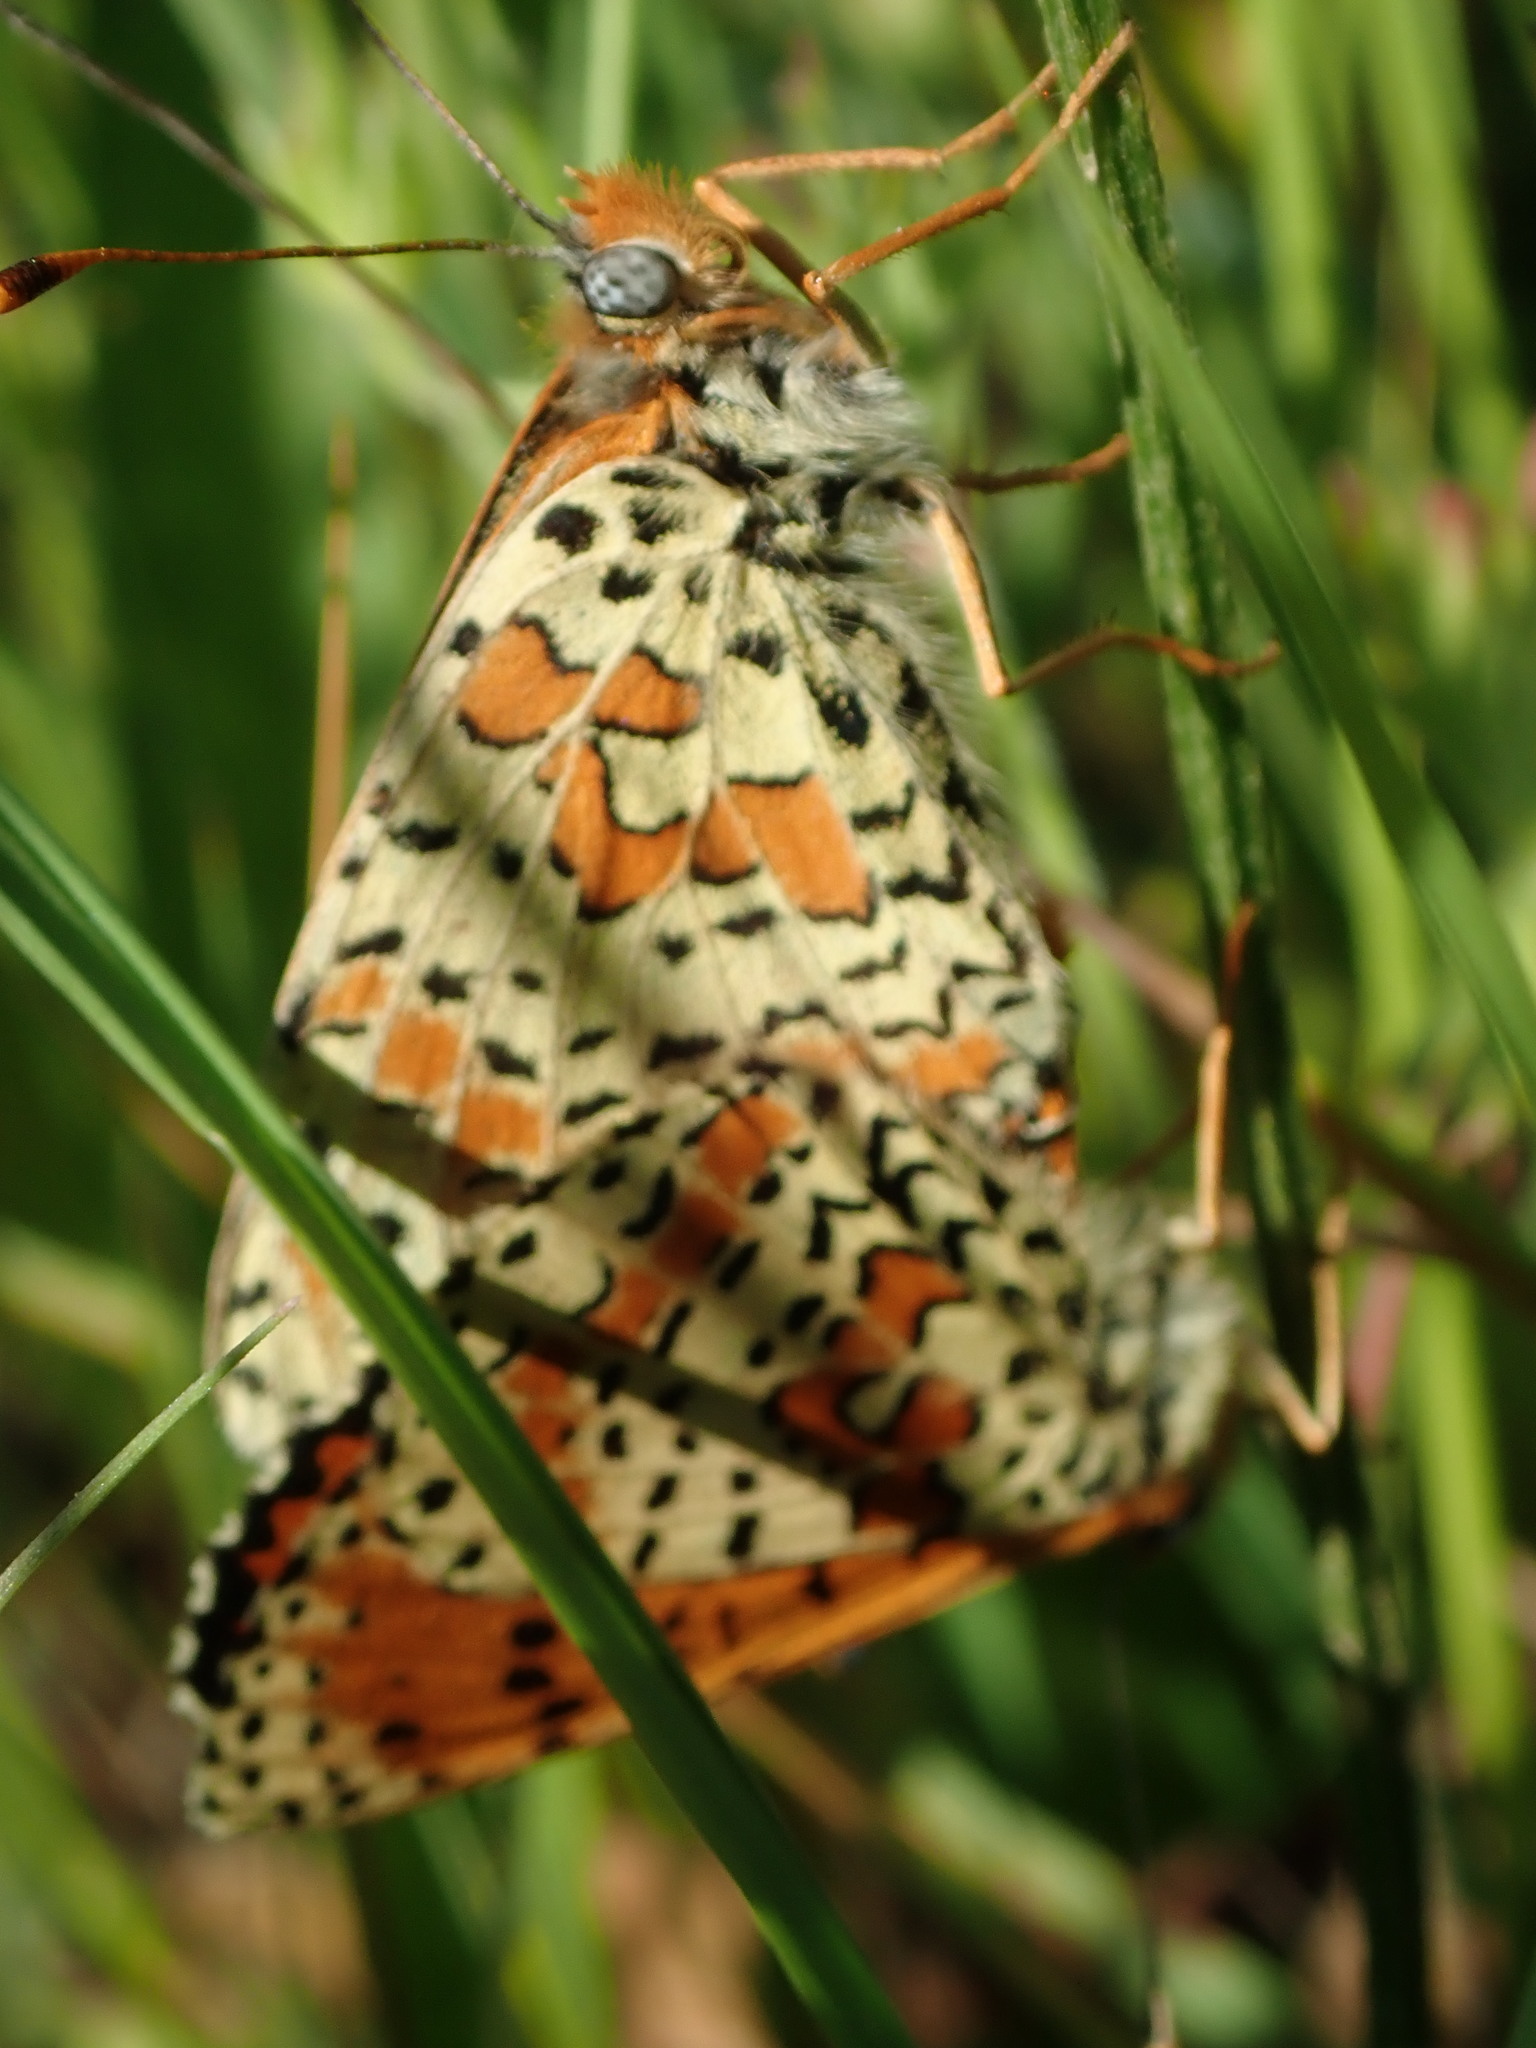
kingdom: Animalia
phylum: Arthropoda
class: Insecta
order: Lepidoptera
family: Nymphalidae
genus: Melitaea
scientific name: Melitaea didyma
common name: Spotted fritillary
